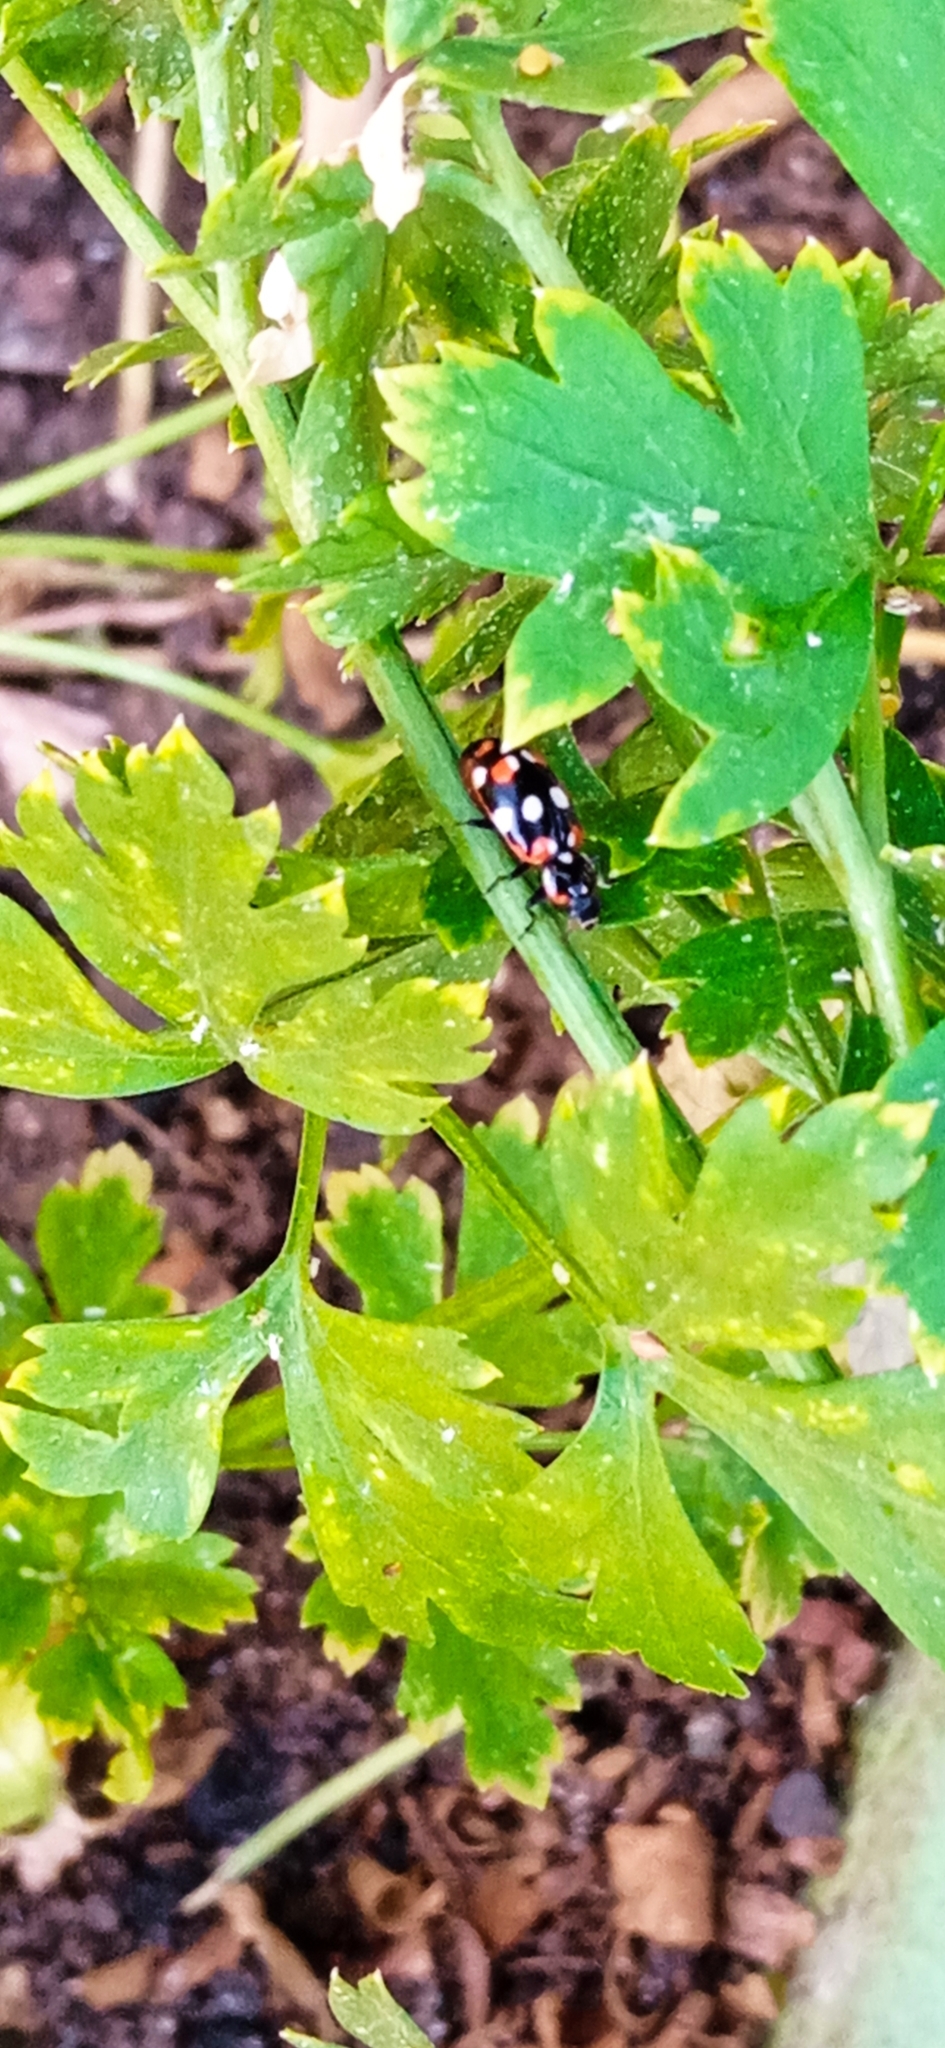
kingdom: Animalia
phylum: Arthropoda
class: Insecta
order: Coleoptera
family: Coccinellidae
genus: Eriopis
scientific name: Eriopis connexa
